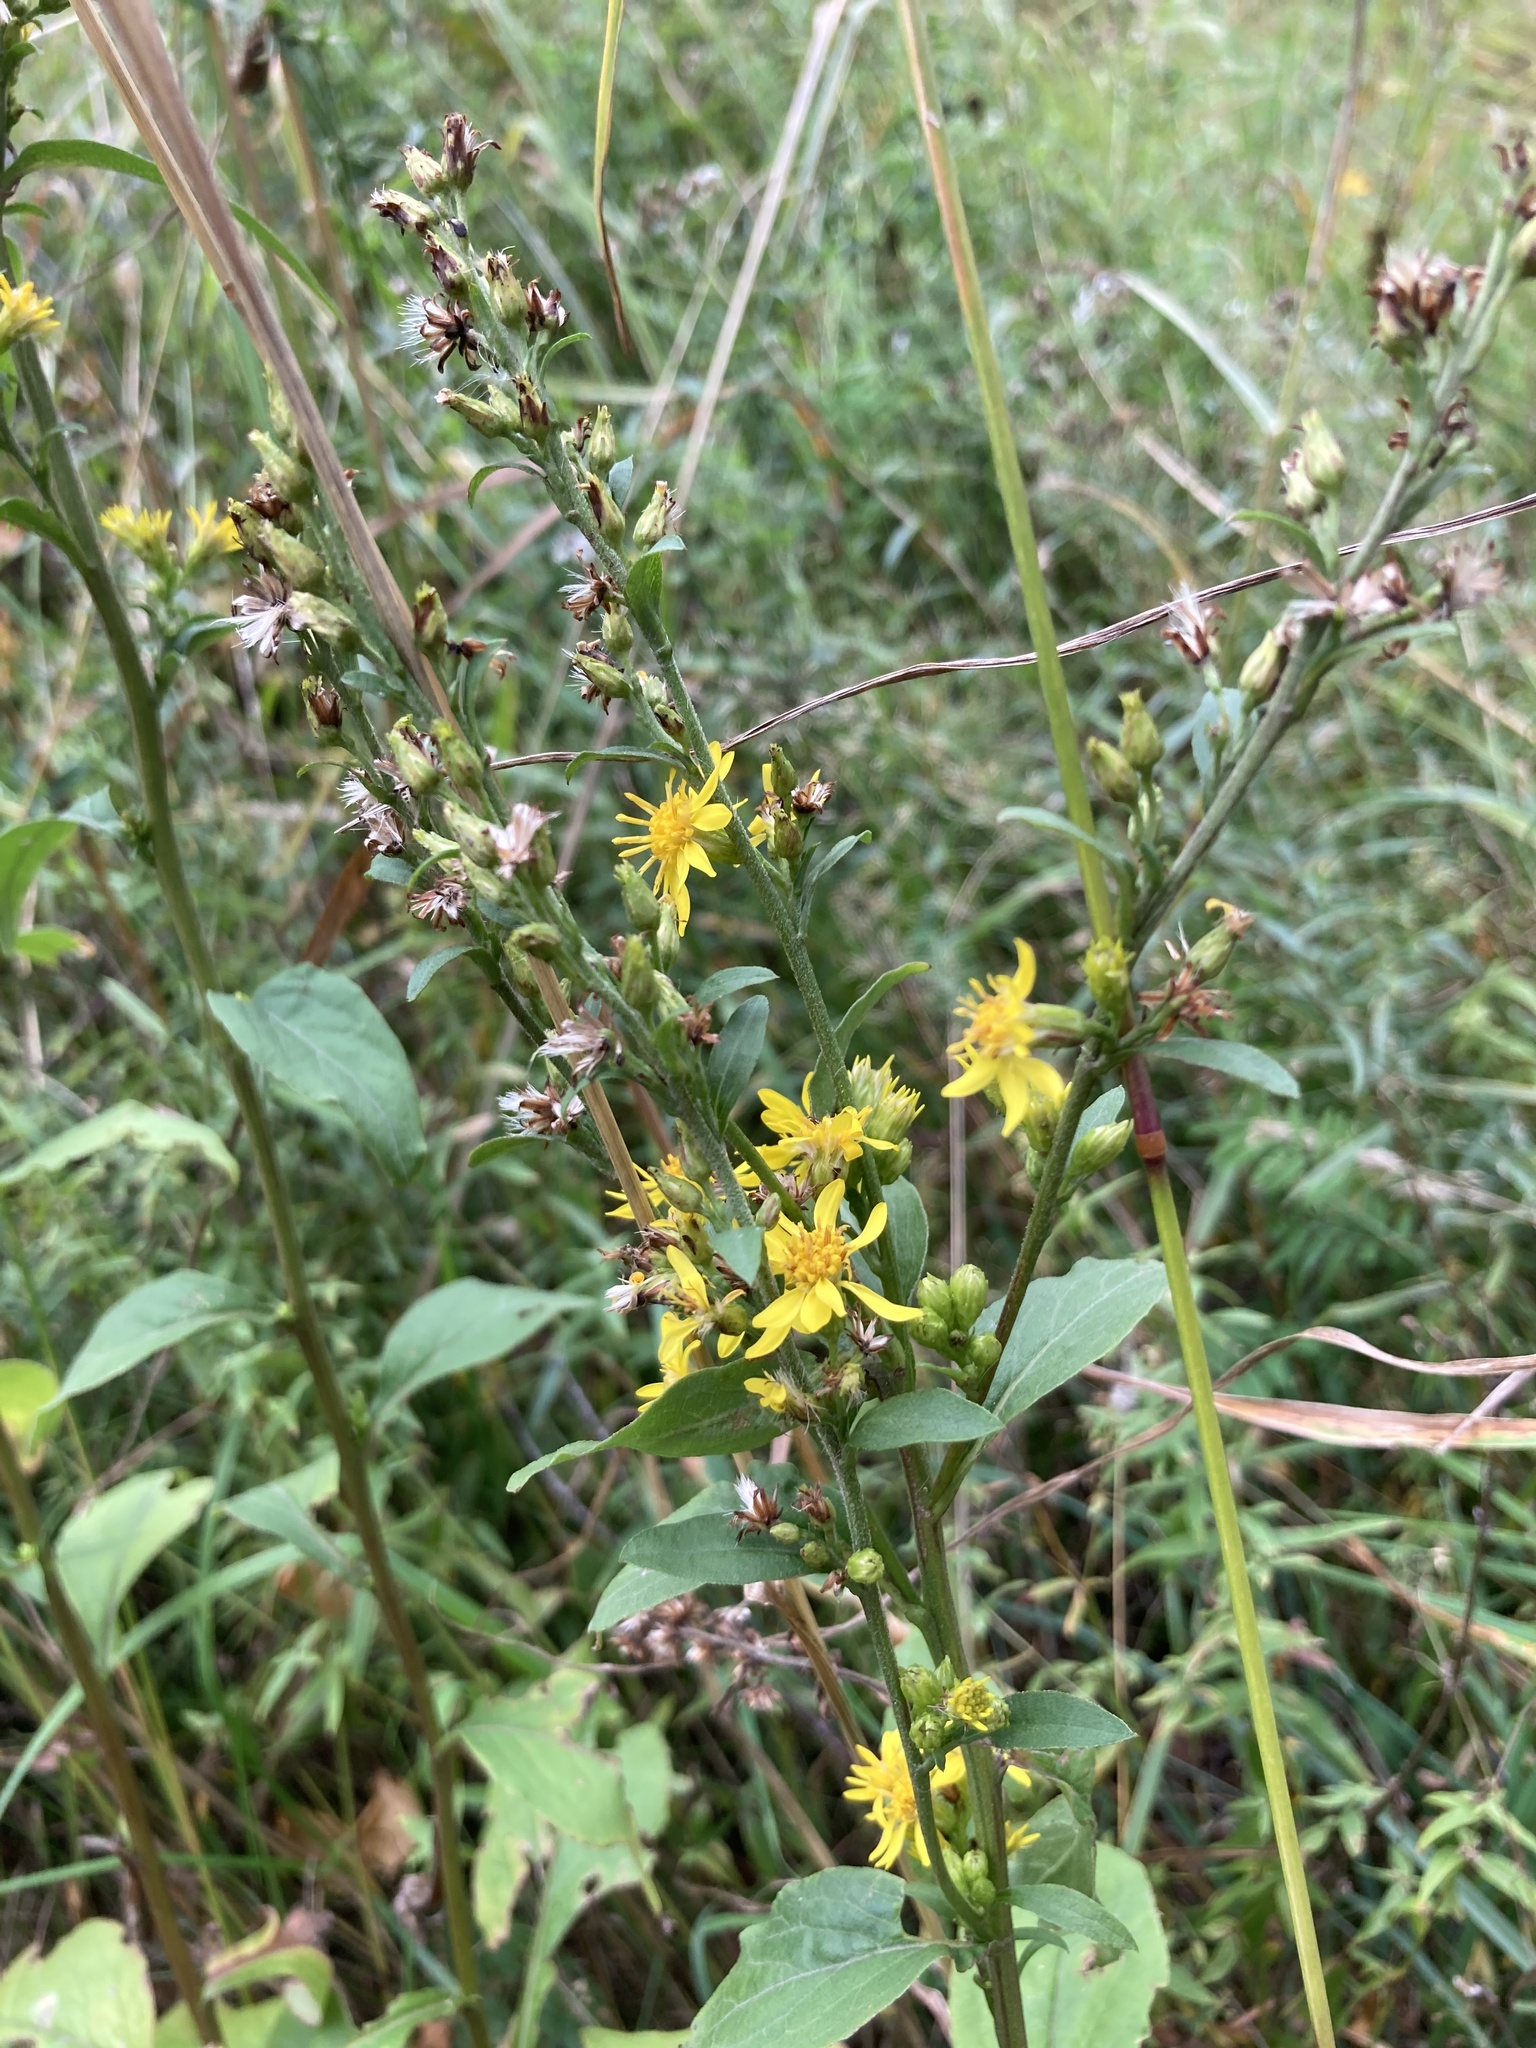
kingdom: Plantae
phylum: Tracheophyta
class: Magnoliopsida
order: Asterales
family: Asteraceae
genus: Solidago
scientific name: Solidago virgaurea
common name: Goldenrod
